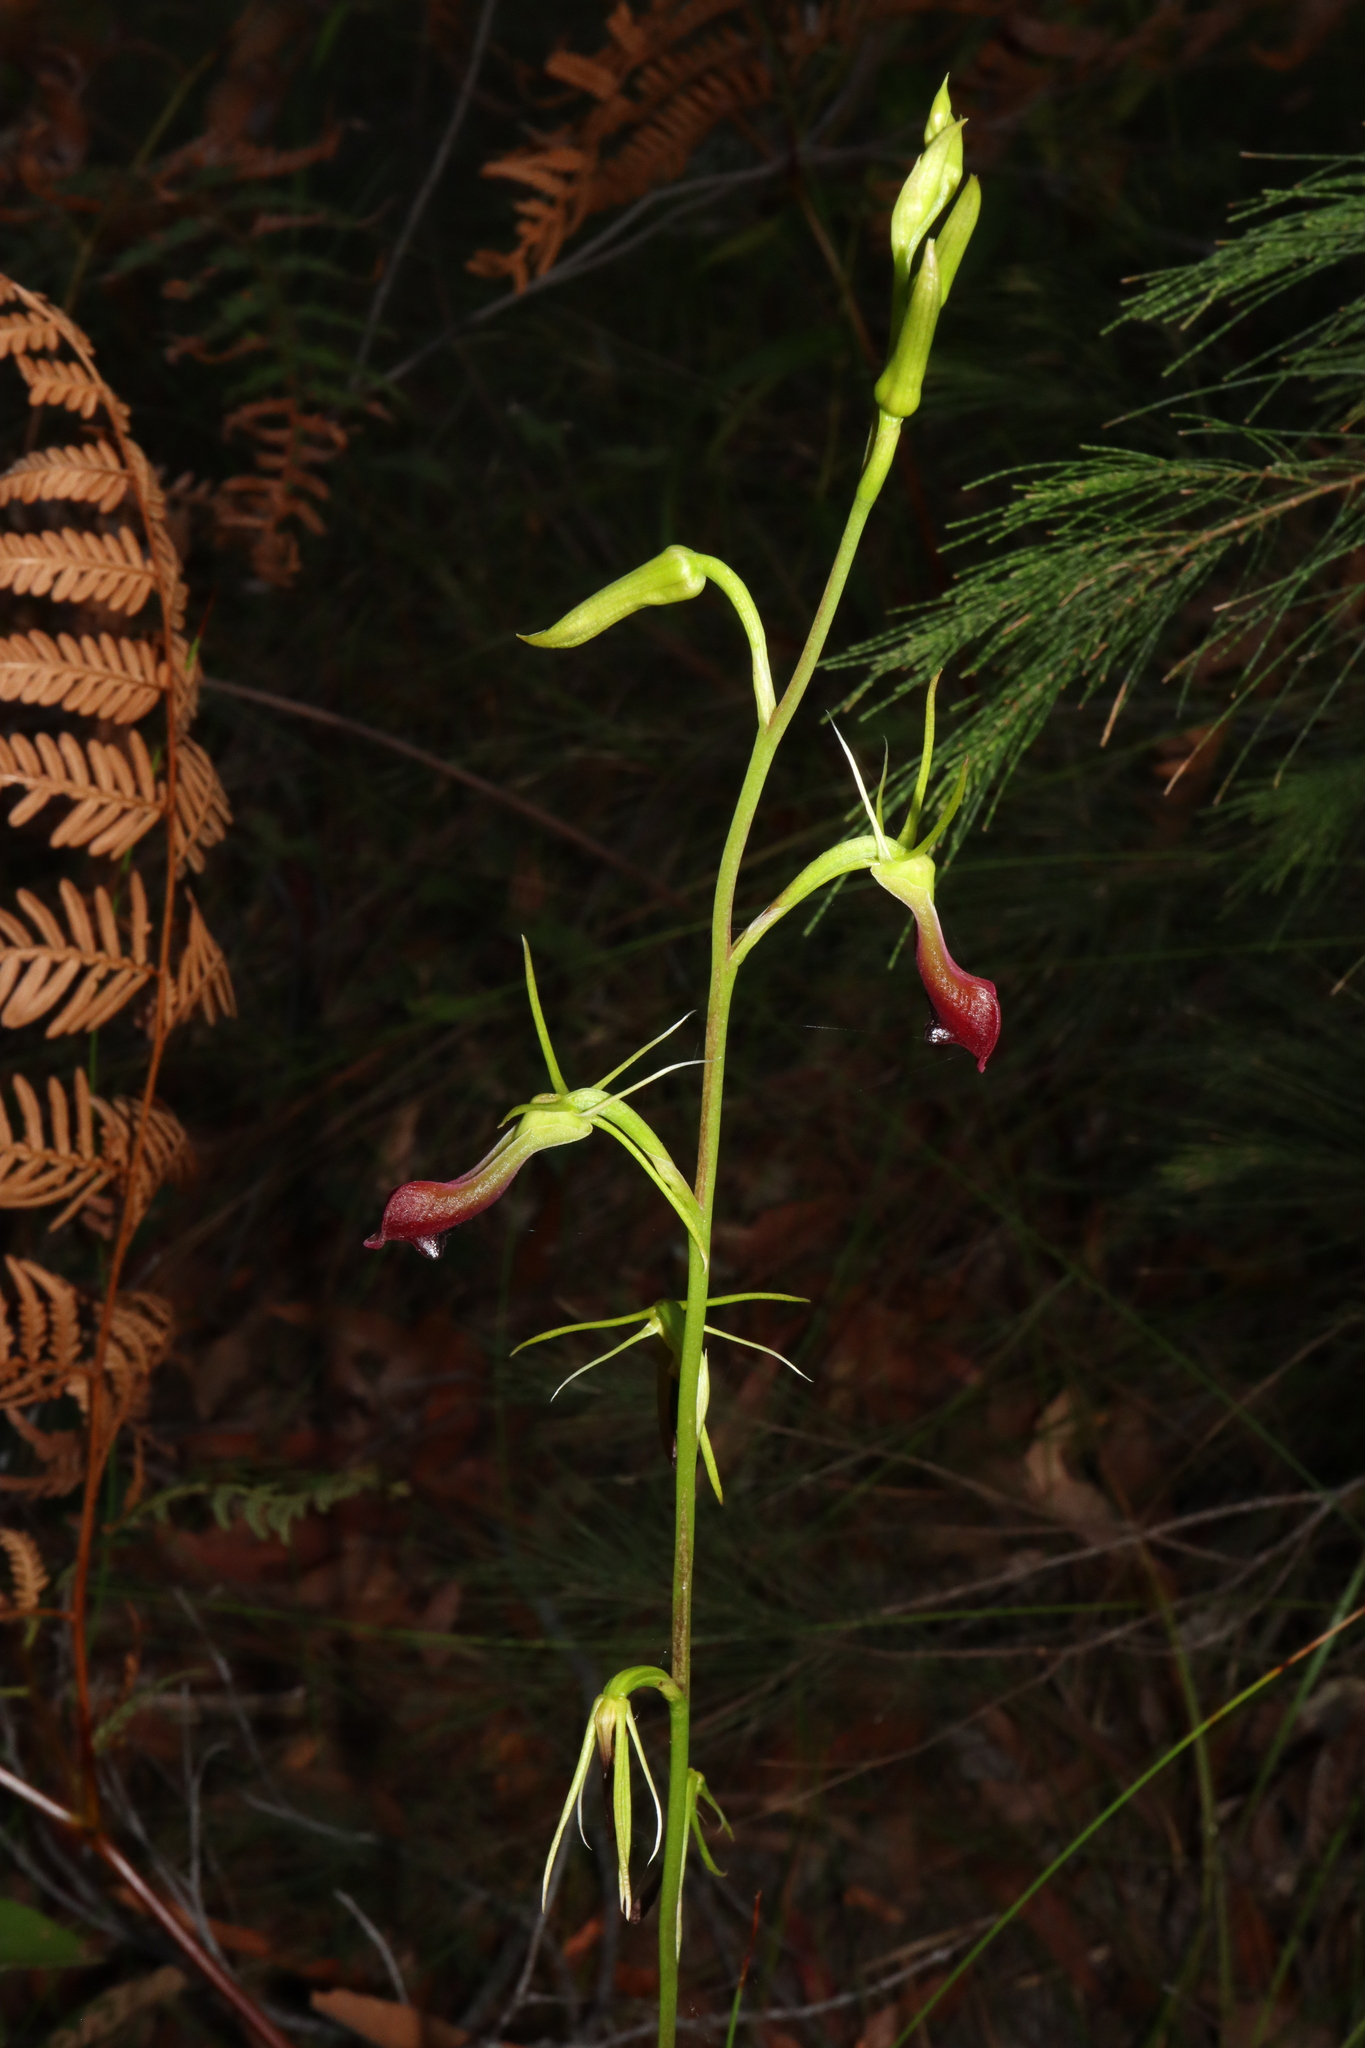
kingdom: Plantae
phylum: Tracheophyta
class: Liliopsida
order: Asparagales
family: Orchidaceae
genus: Cryptostylis
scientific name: Cryptostylis subulata
